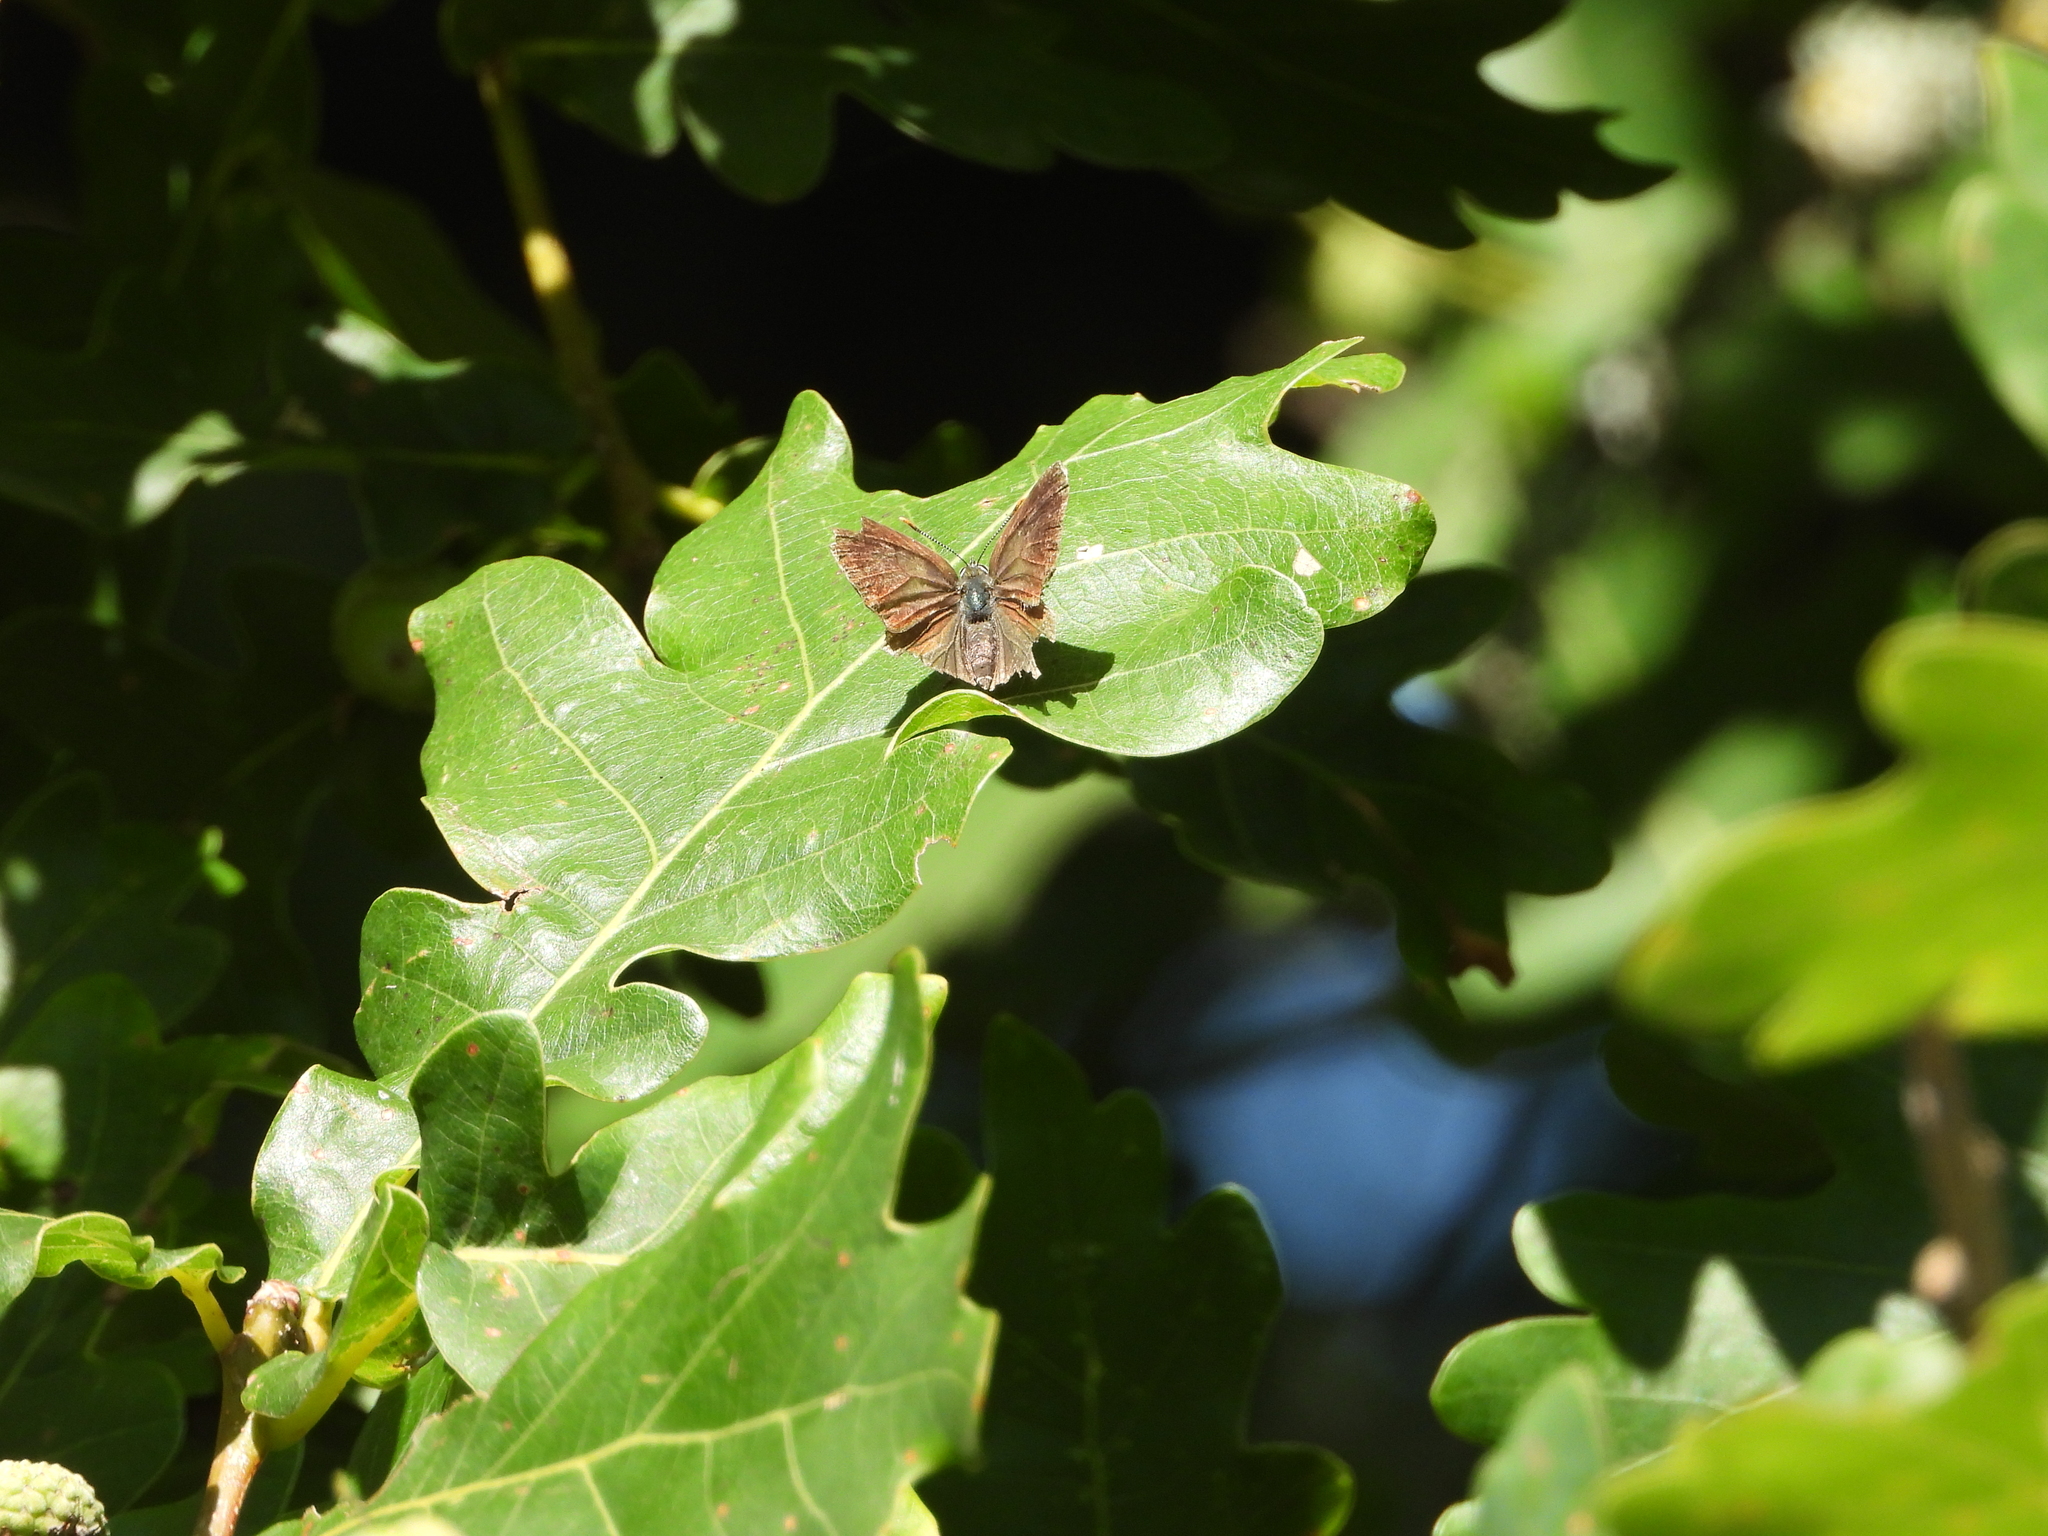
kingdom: Animalia
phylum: Arthropoda
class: Insecta
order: Lepidoptera
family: Lycaenidae
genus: Quercusia
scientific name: Quercusia quercus
